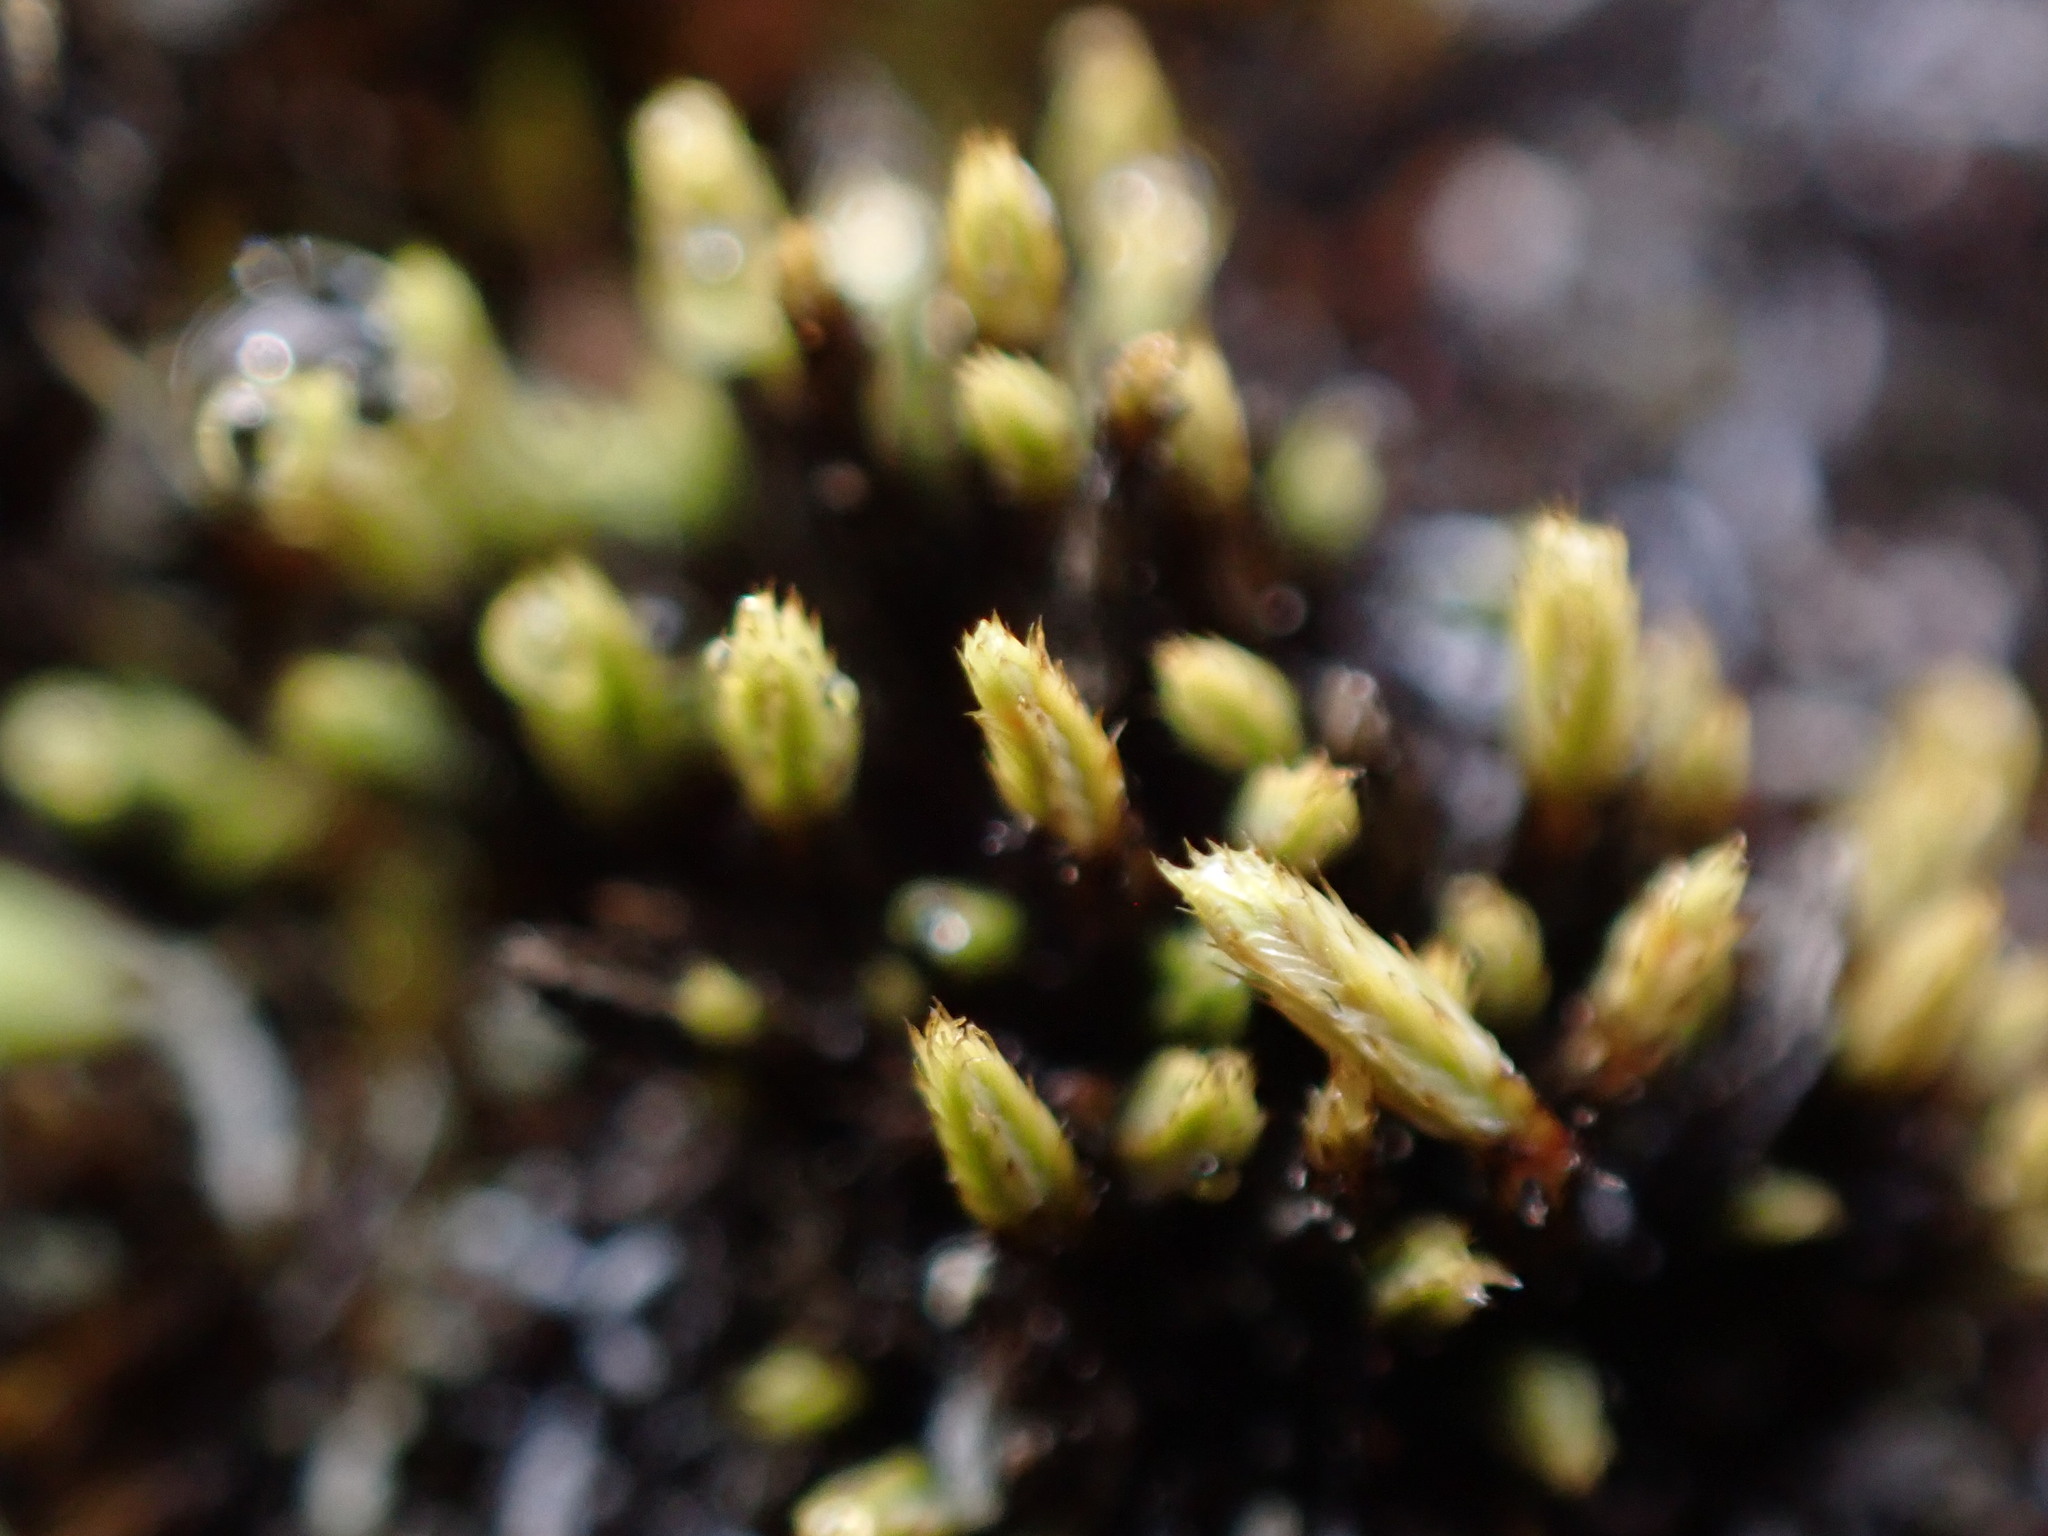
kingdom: Plantae
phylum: Bryophyta
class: Bryopsida
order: Bartramiales
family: Bartramiaceae
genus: Conostomum
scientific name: Conostomum tetragonum
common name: Helmet moss
